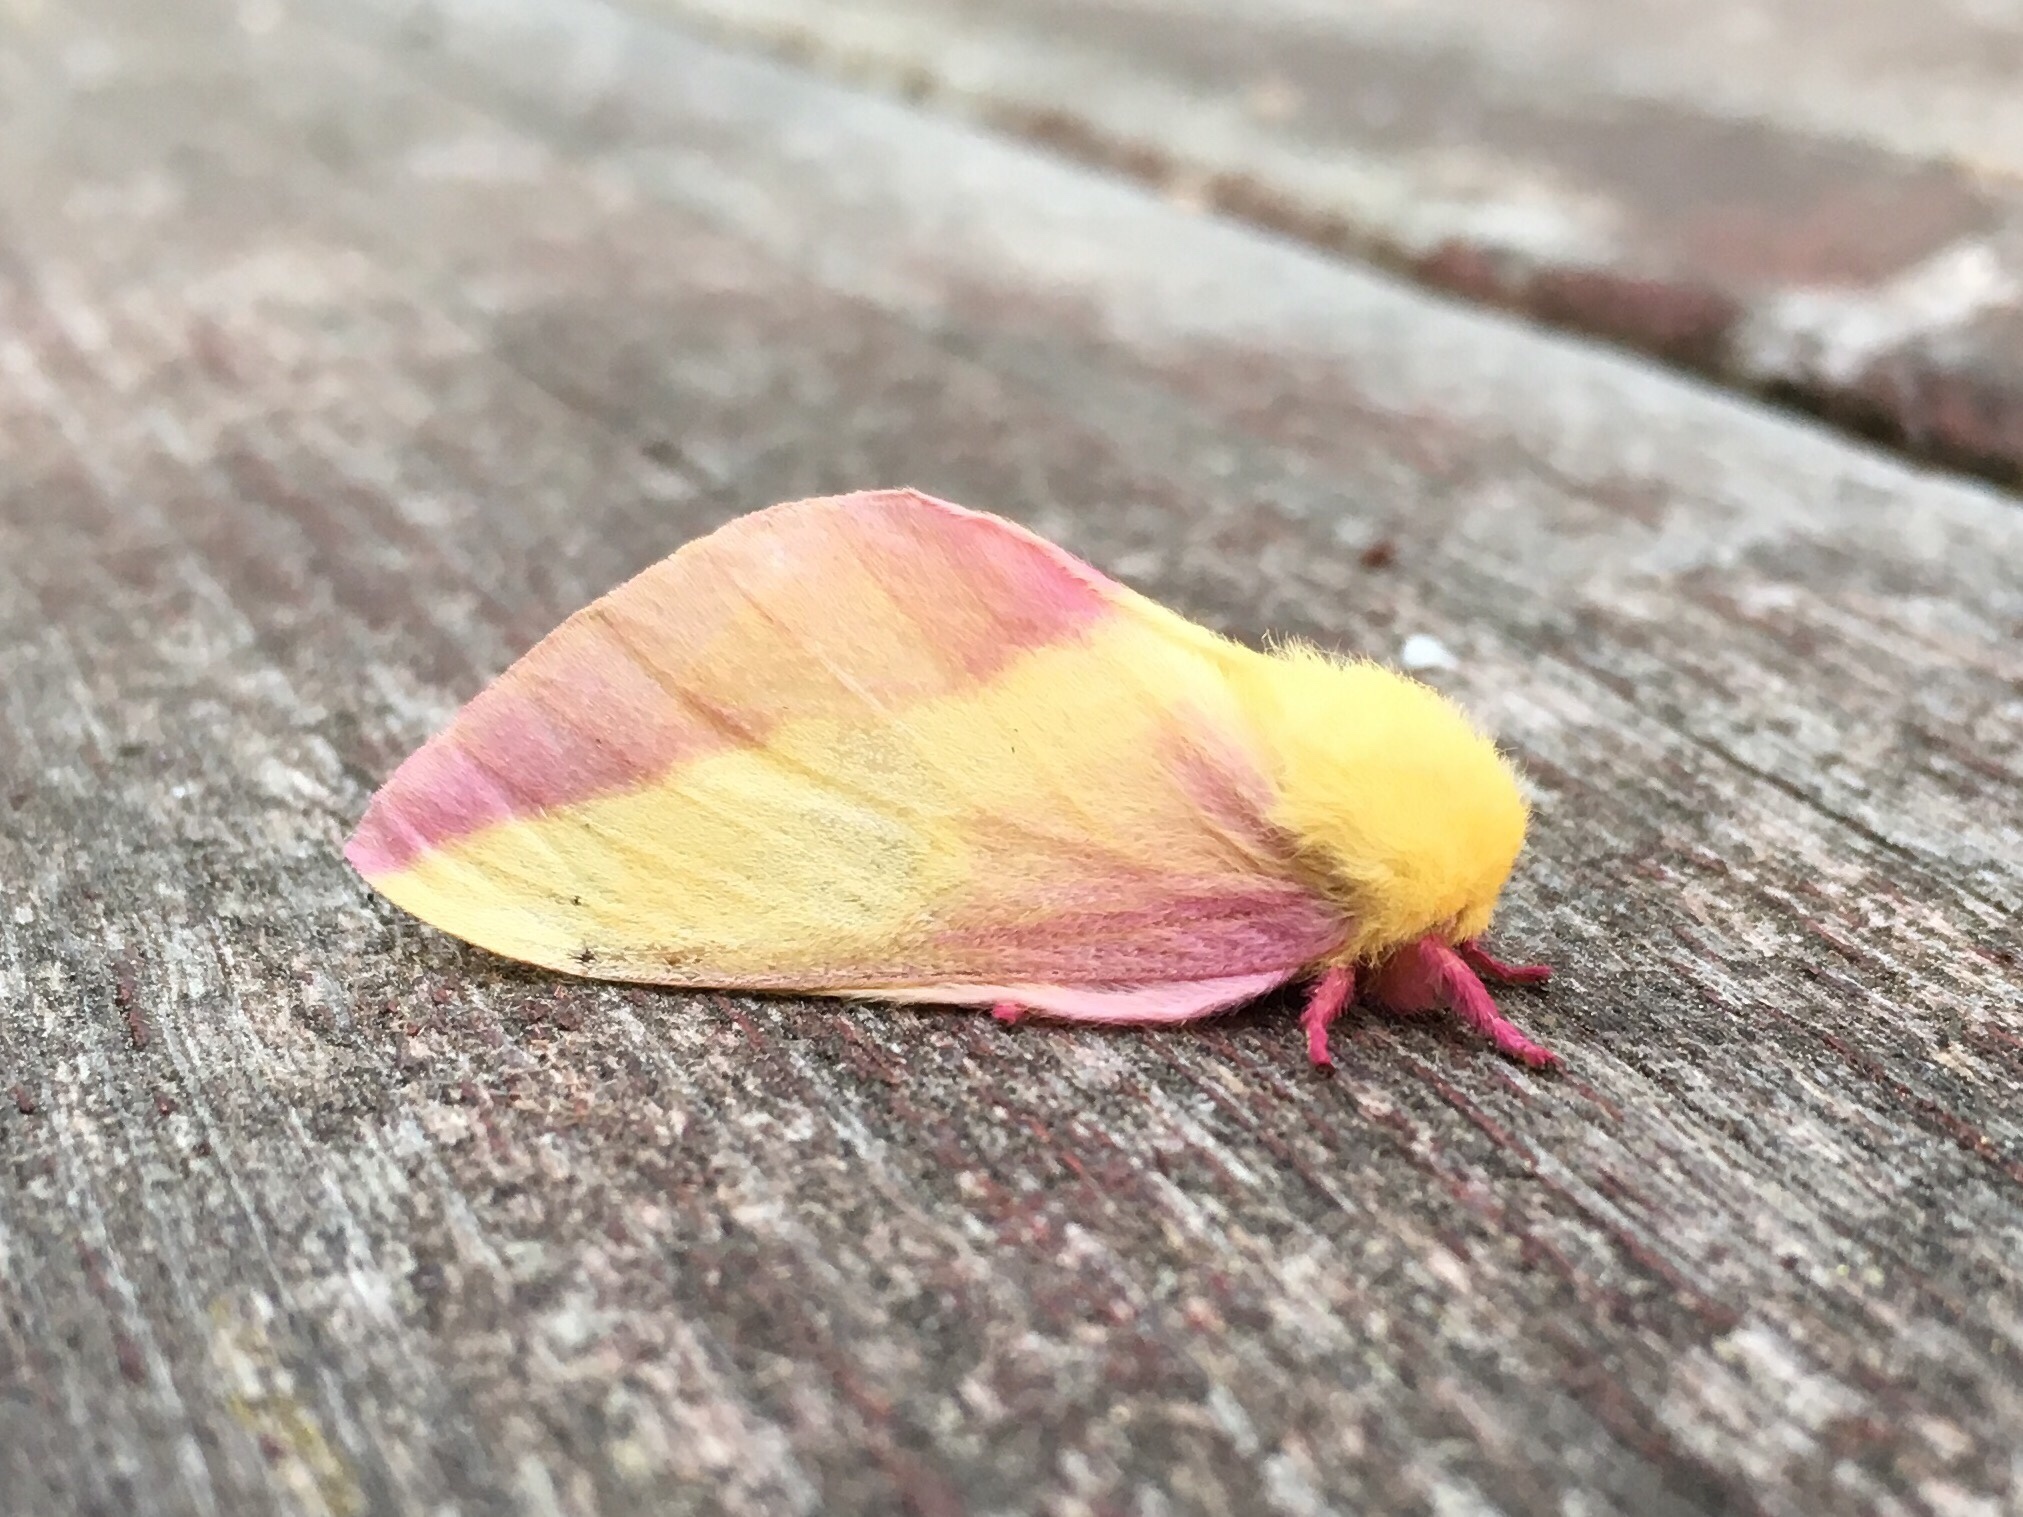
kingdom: Animalia
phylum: Arthropoda
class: Insecta
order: Lepidoptera
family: Saturniidae
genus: Dryocampa
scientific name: Dryocampa rubicunda
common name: Rosy maple moth
